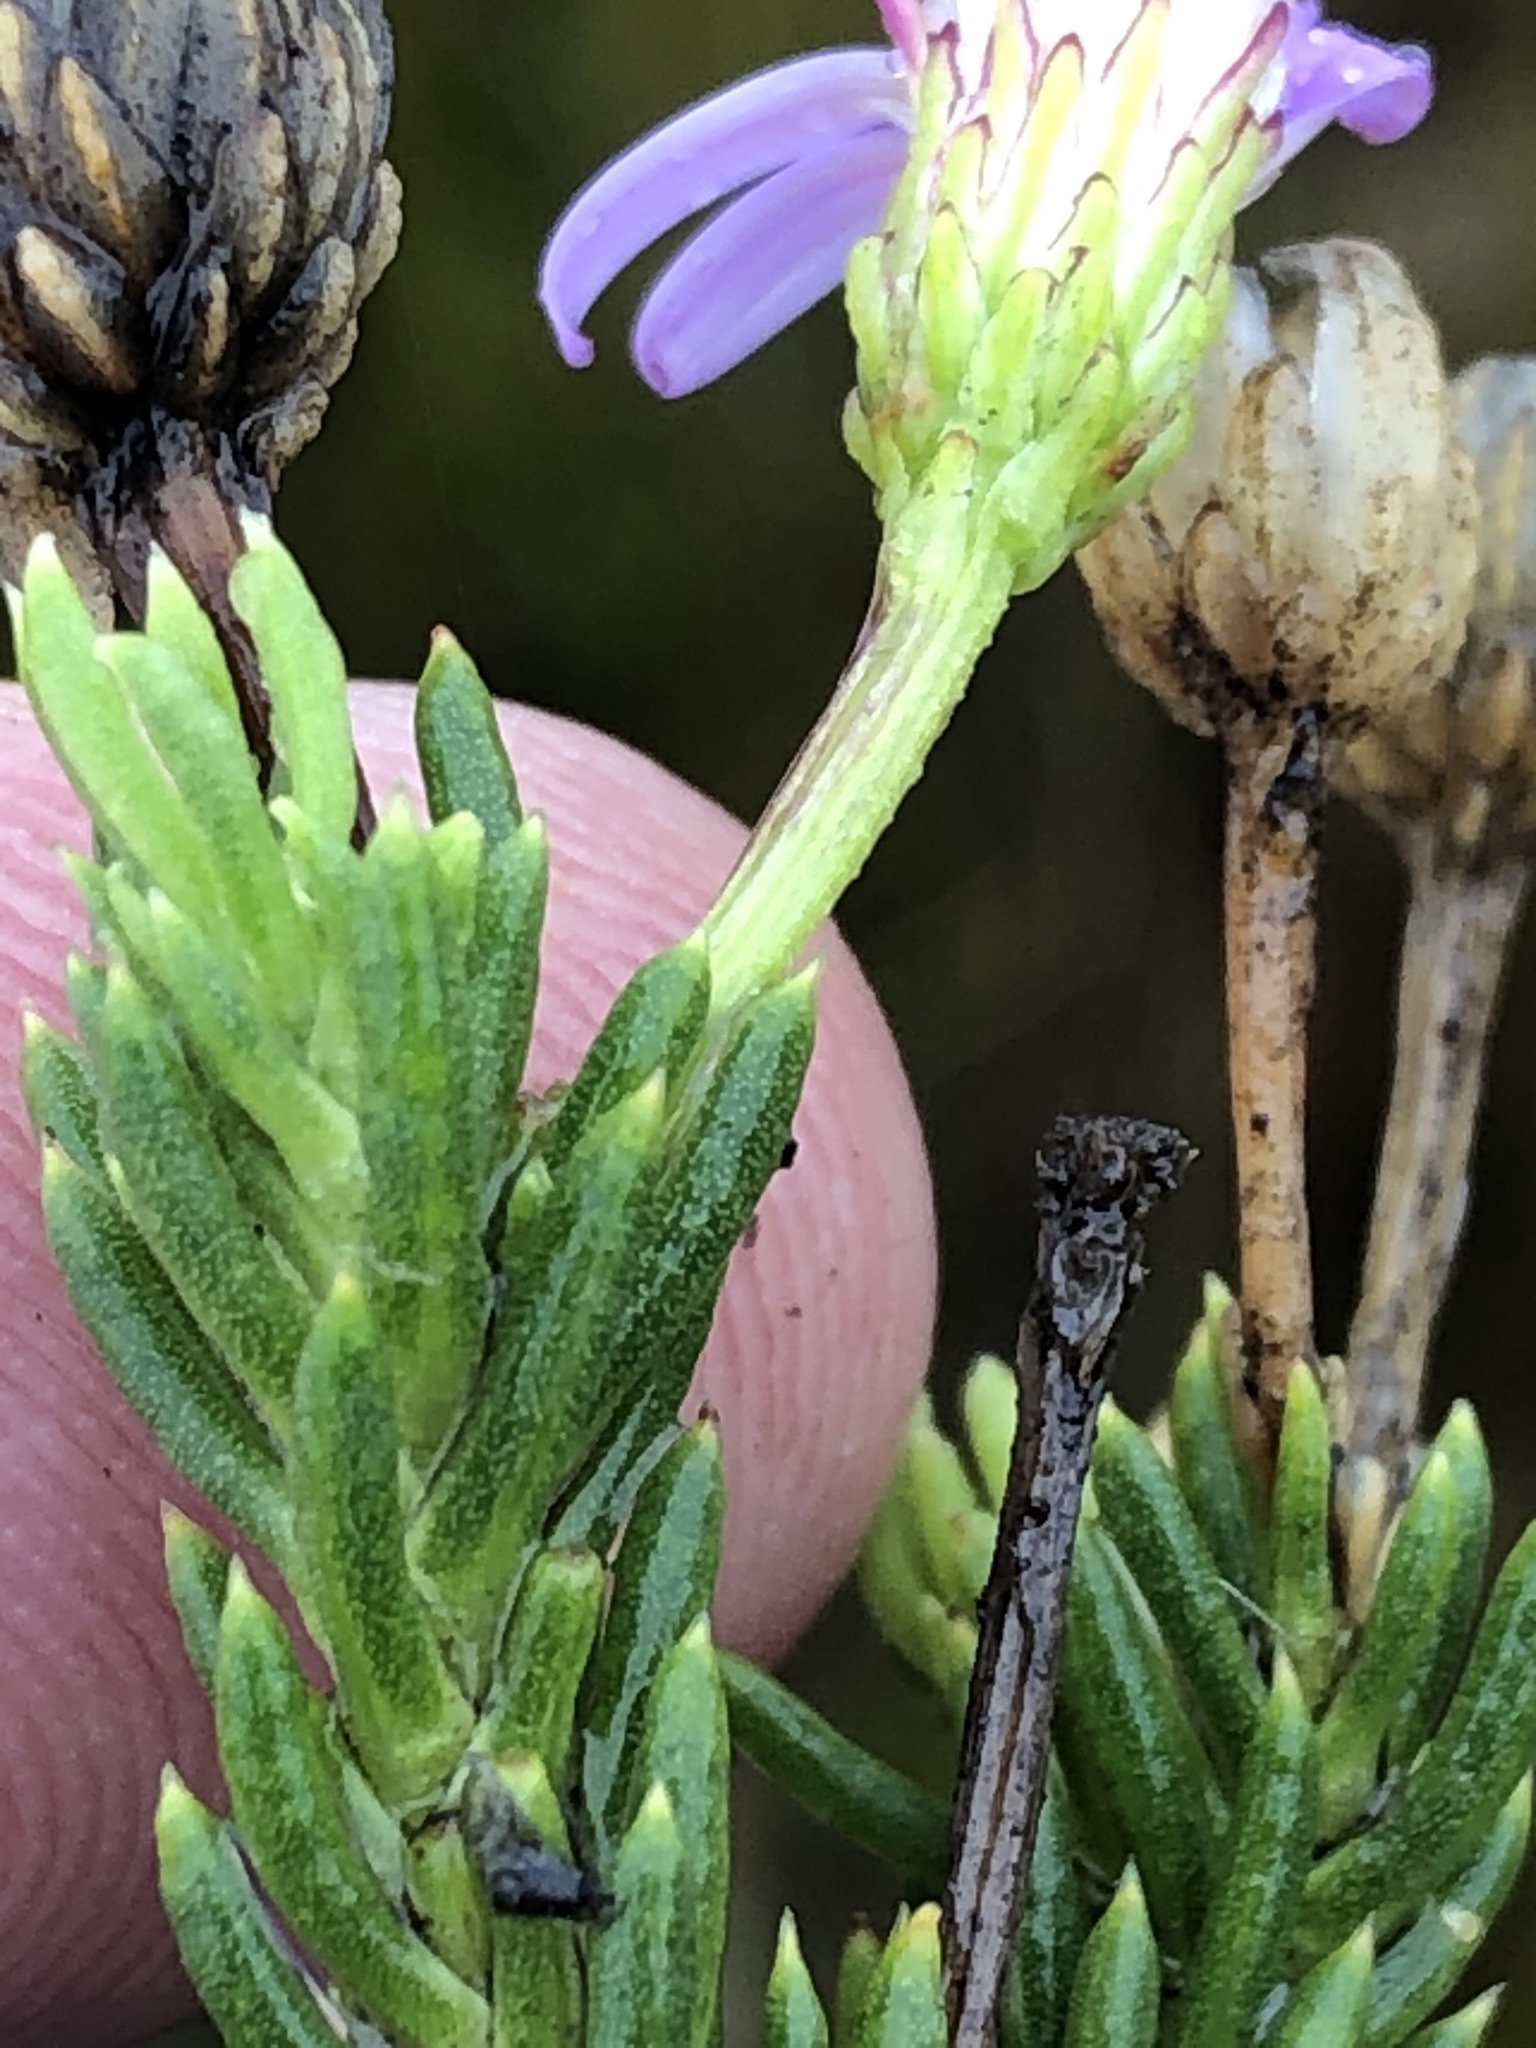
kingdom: Plantae
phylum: Tracheophyta
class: Magnoliopsida
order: Asterales
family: Asteraceae
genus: Felicia
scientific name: Felicia oleosa
